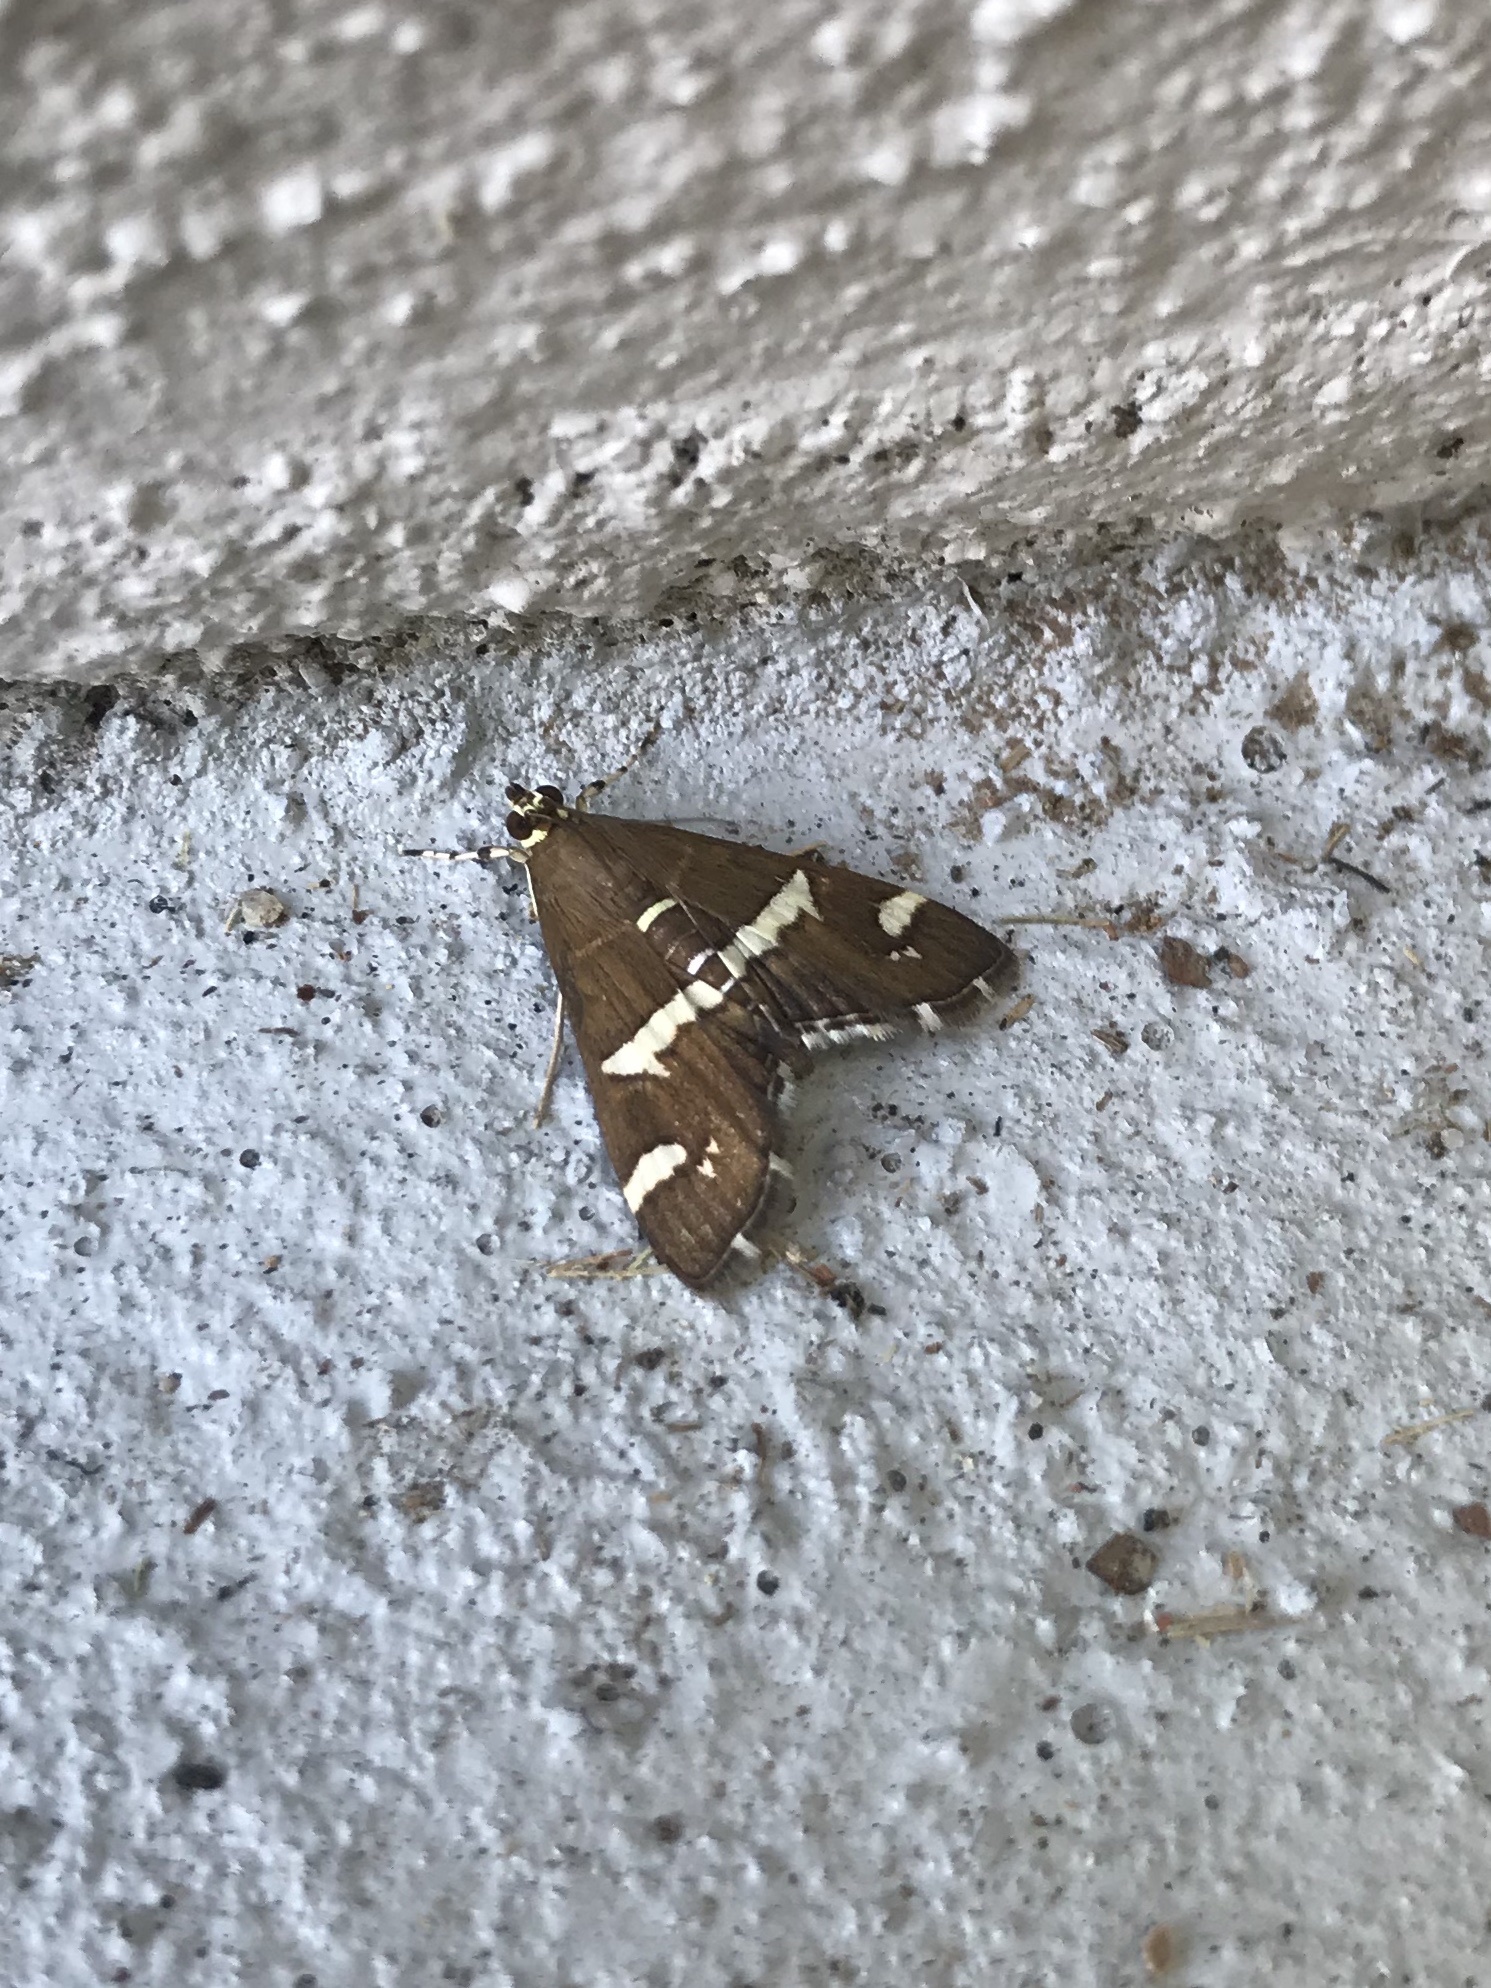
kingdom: Animalia
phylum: Arthropoda
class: Insecta
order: Lepidoptera
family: Crambidae
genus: Spoladea
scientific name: Spoladea recurvalis
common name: Beet webworm moth
